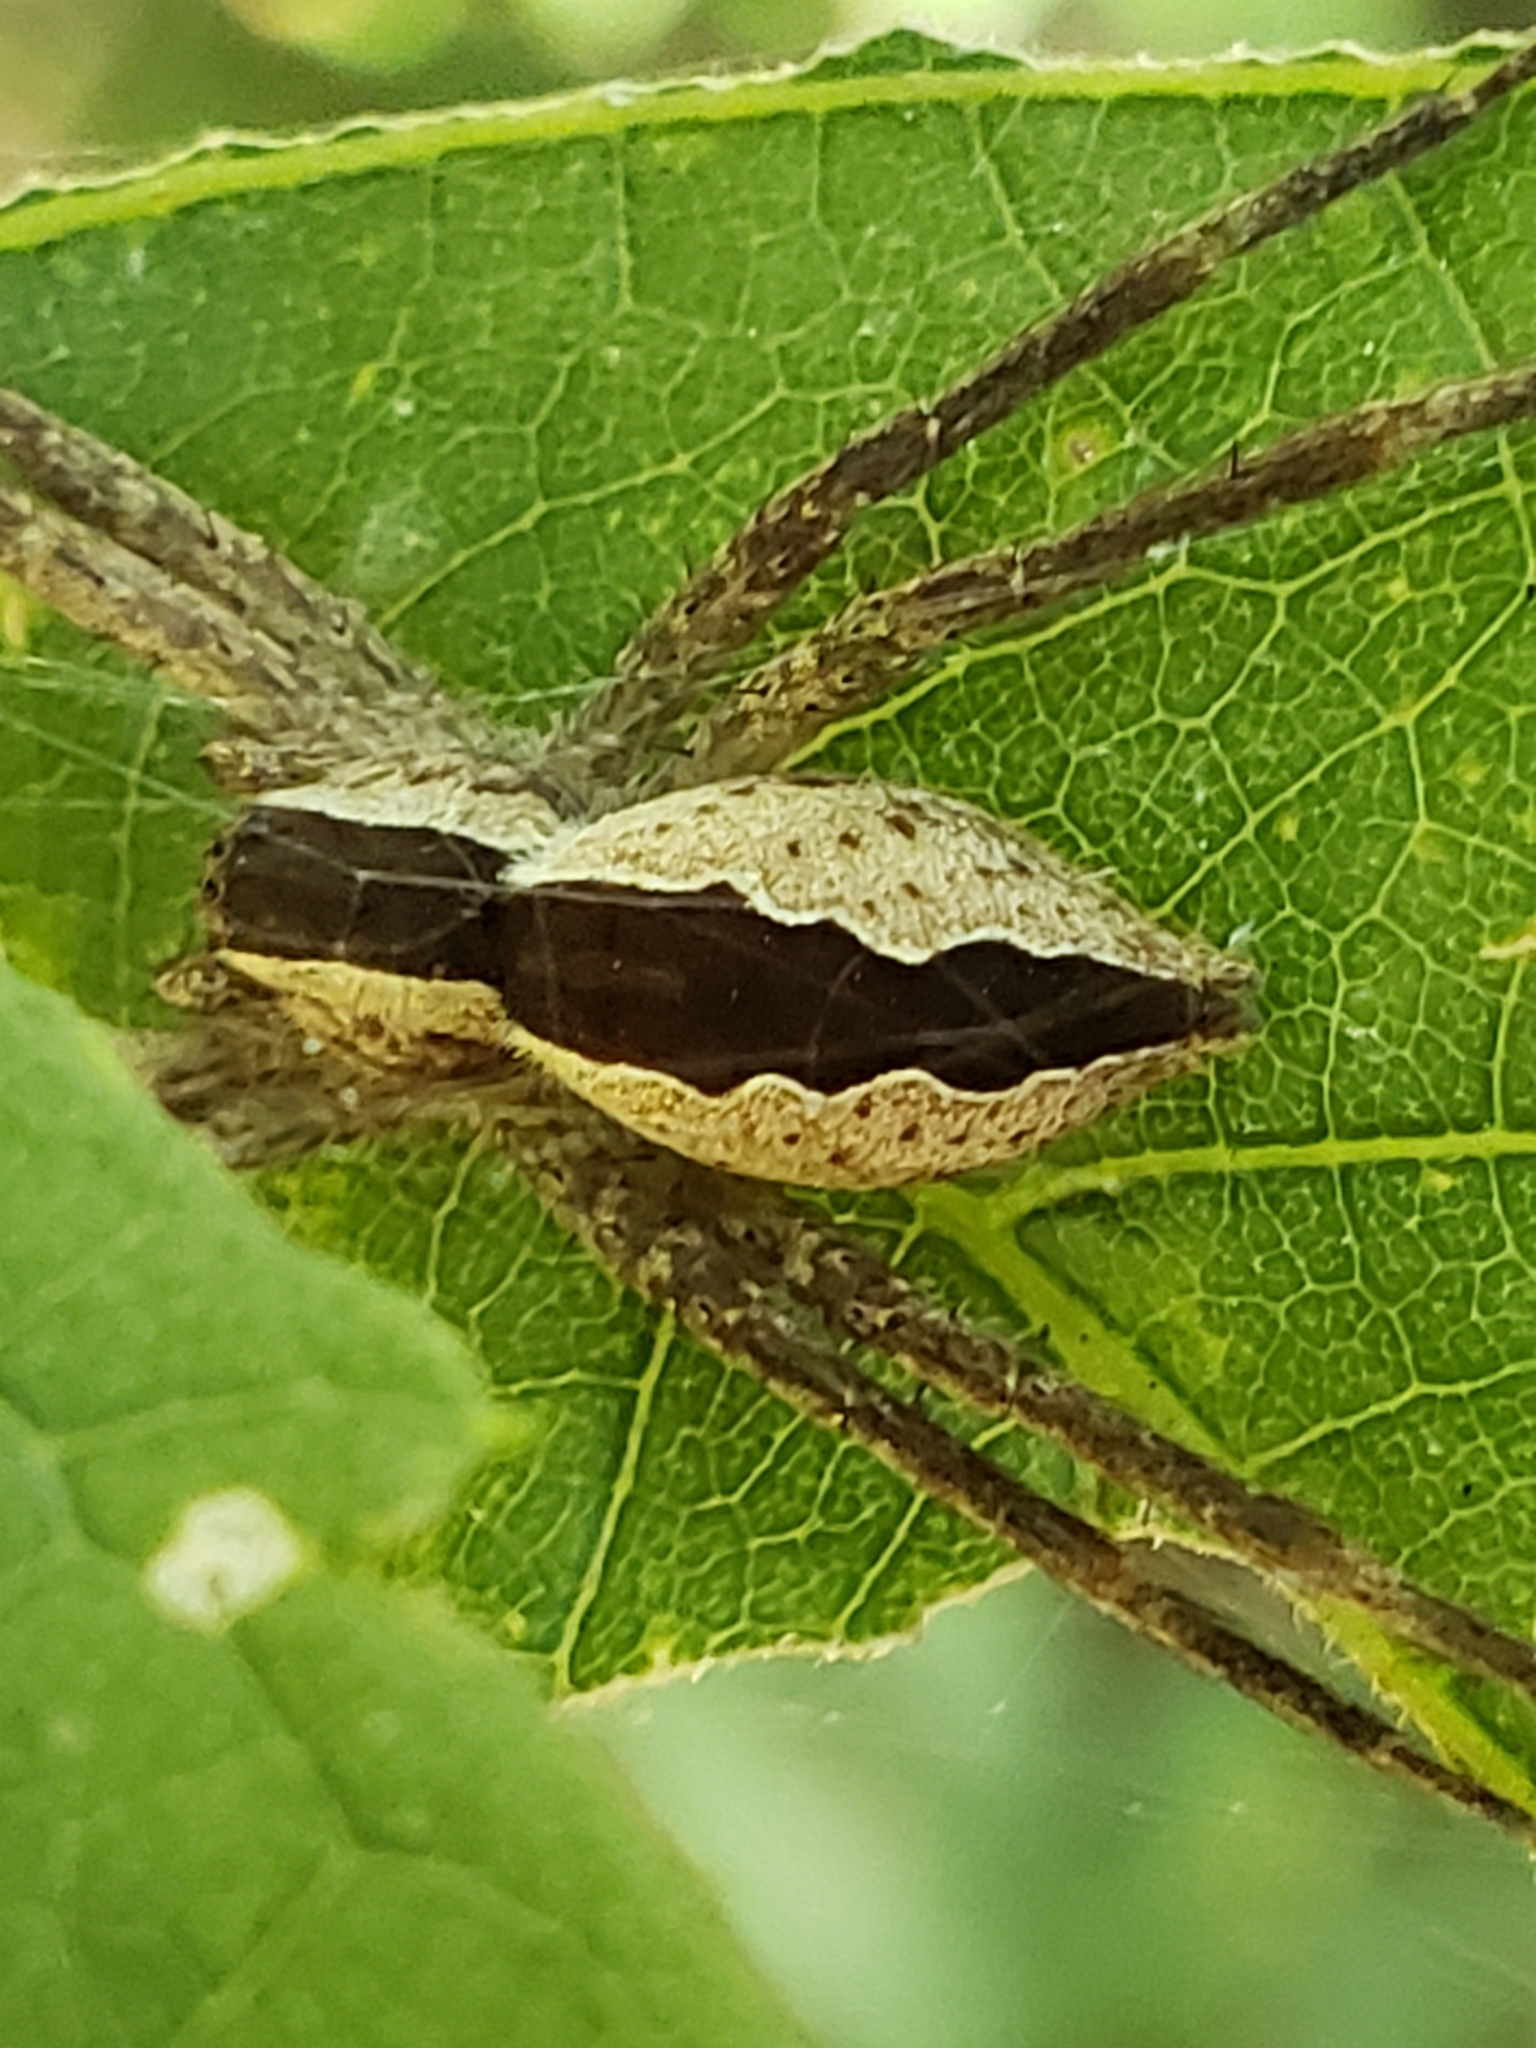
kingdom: Animalia
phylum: Arthropoda
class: Arachnida
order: Araneae
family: Pisauridae
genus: Pisaurina
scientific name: Pisaurina mira
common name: American nursery web spider
